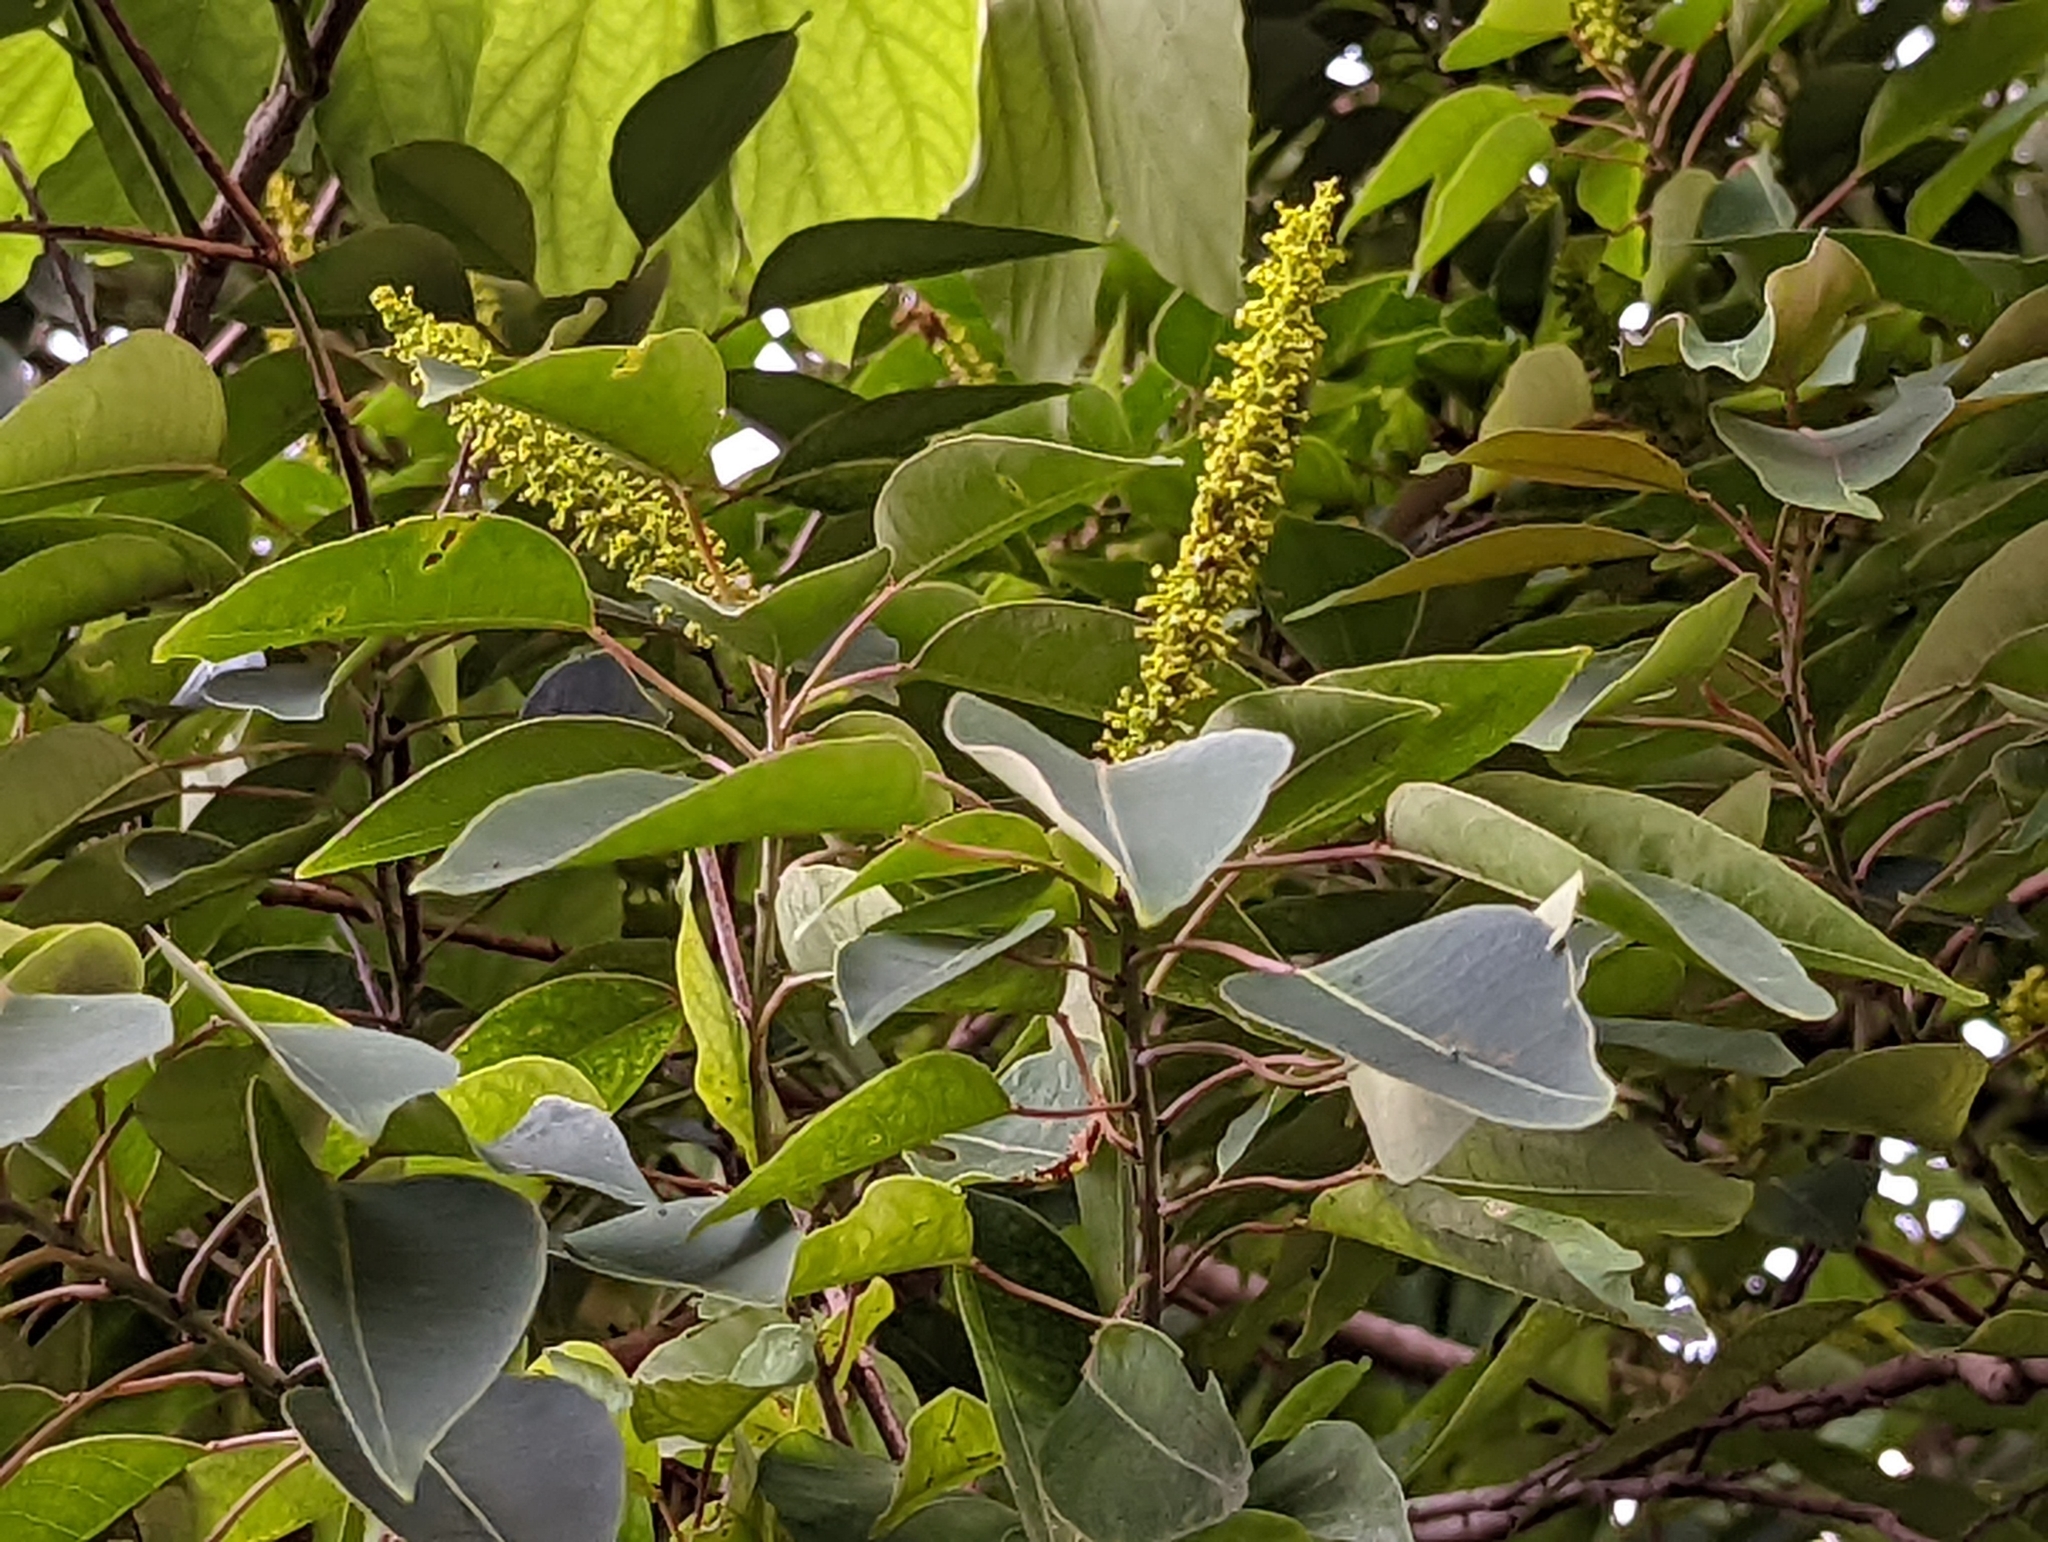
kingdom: Plantae
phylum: Tracheophyta
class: Magnoliopsida
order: Malpighiales
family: Euphorbiaceae
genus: Triadica
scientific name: Triadica cochinchinensis
